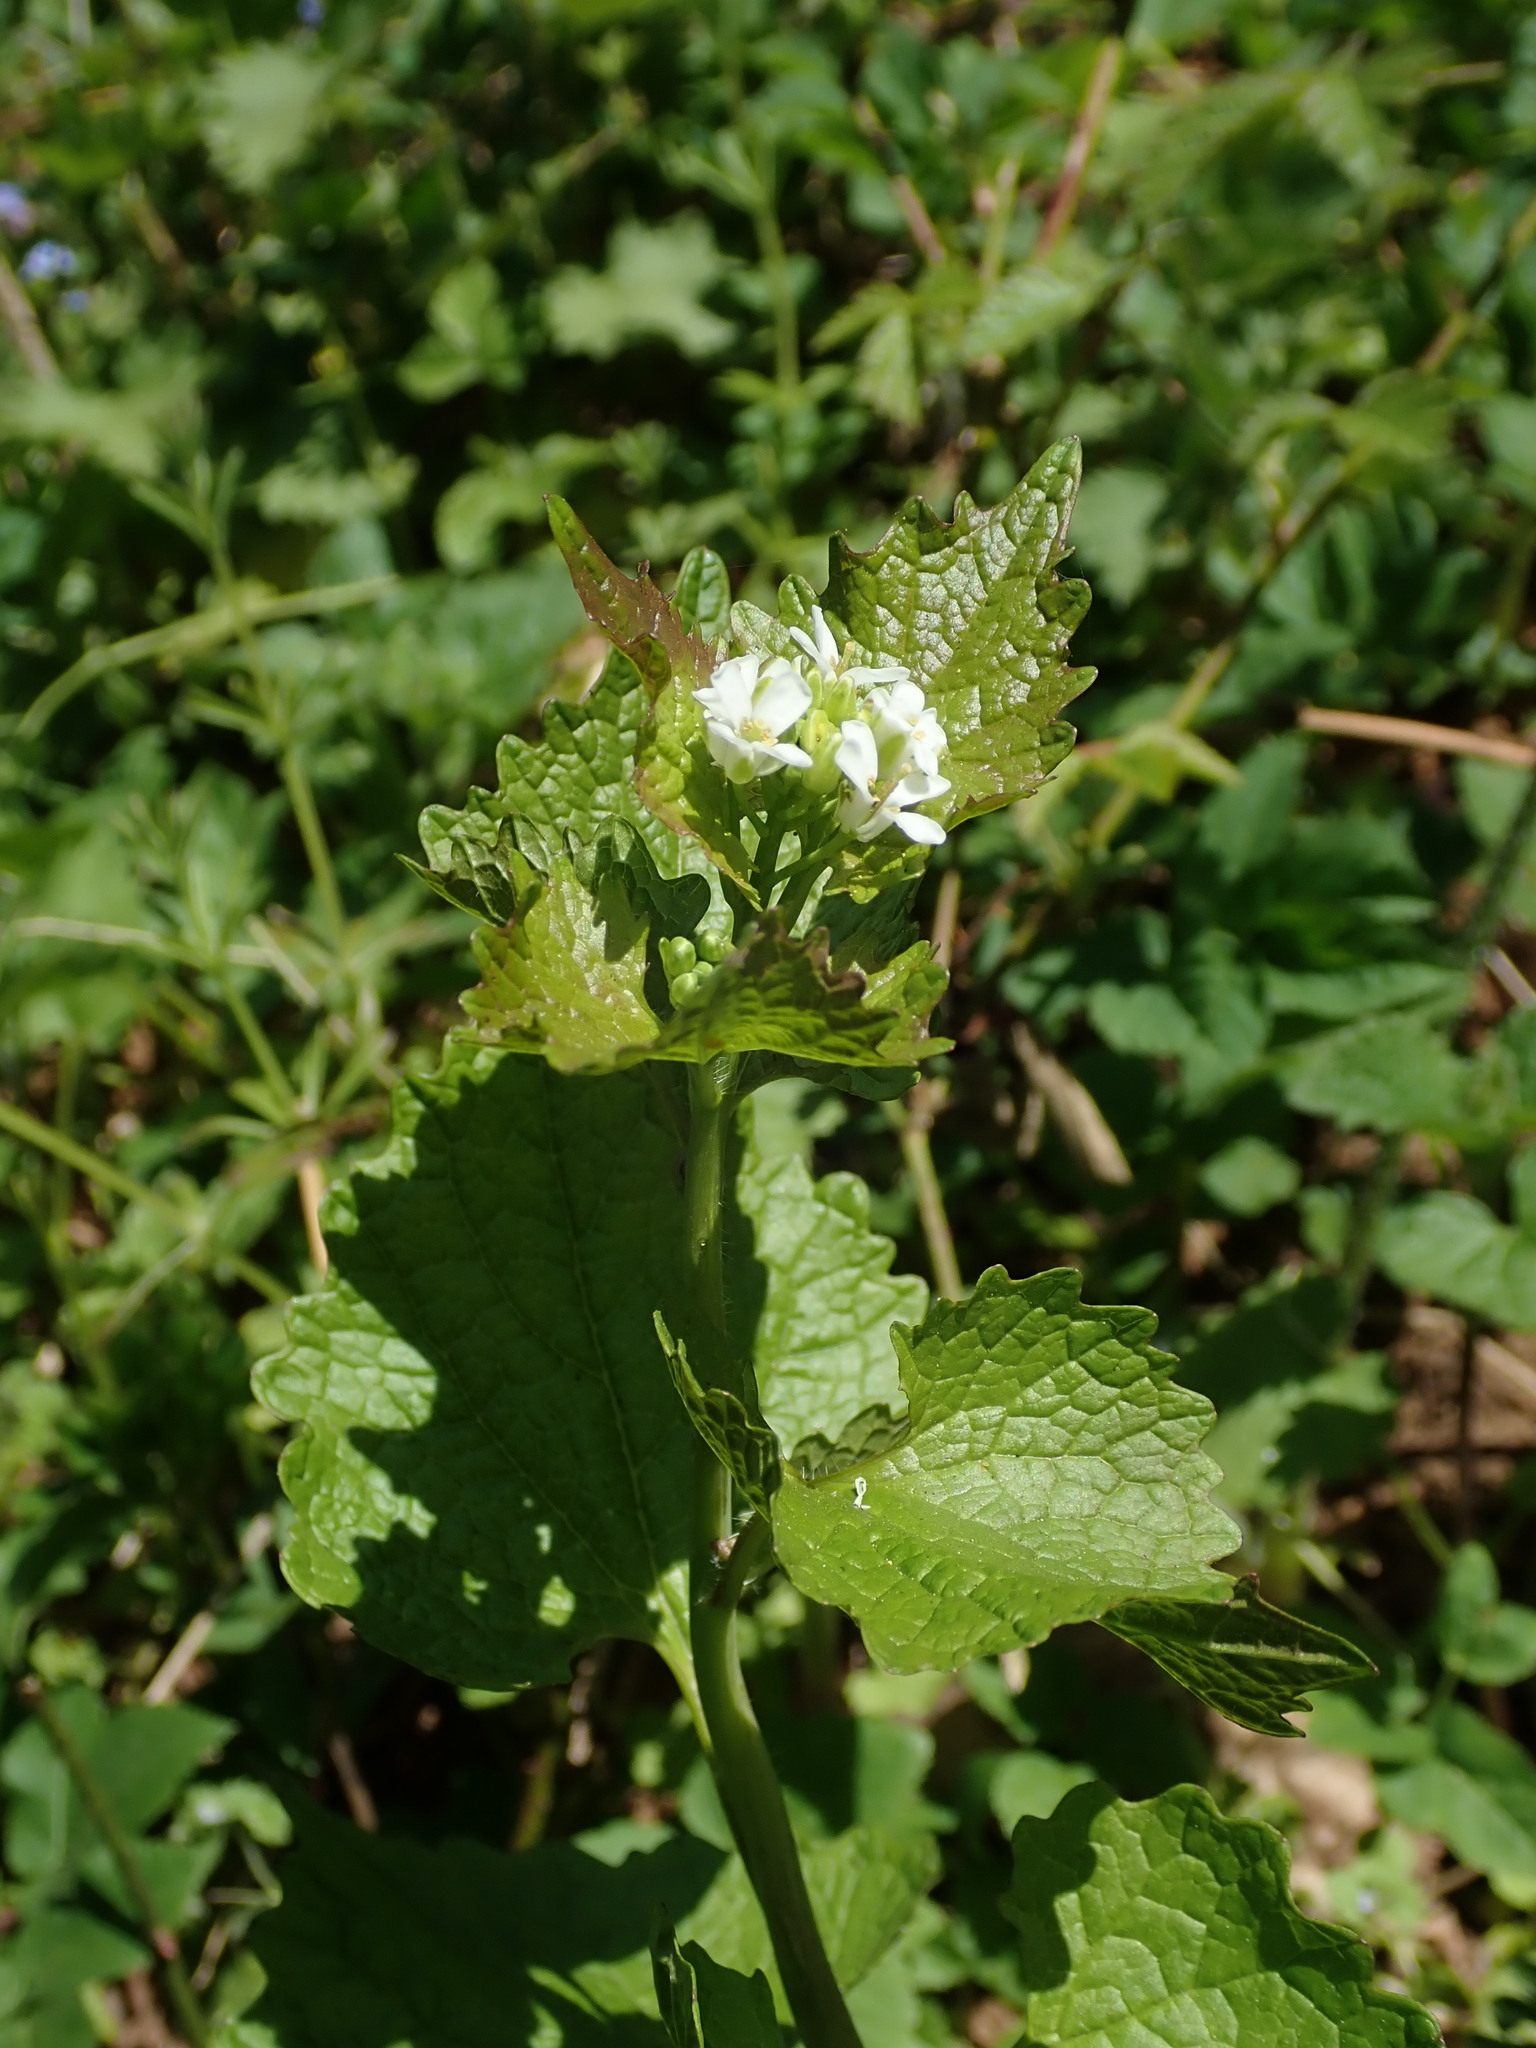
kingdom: Plantae
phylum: Tracheophyta
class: Magnoliopsida
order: Brassicales
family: Brassicaceae
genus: Alliaria
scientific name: Alliaria petiolata
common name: Garlic mustard
